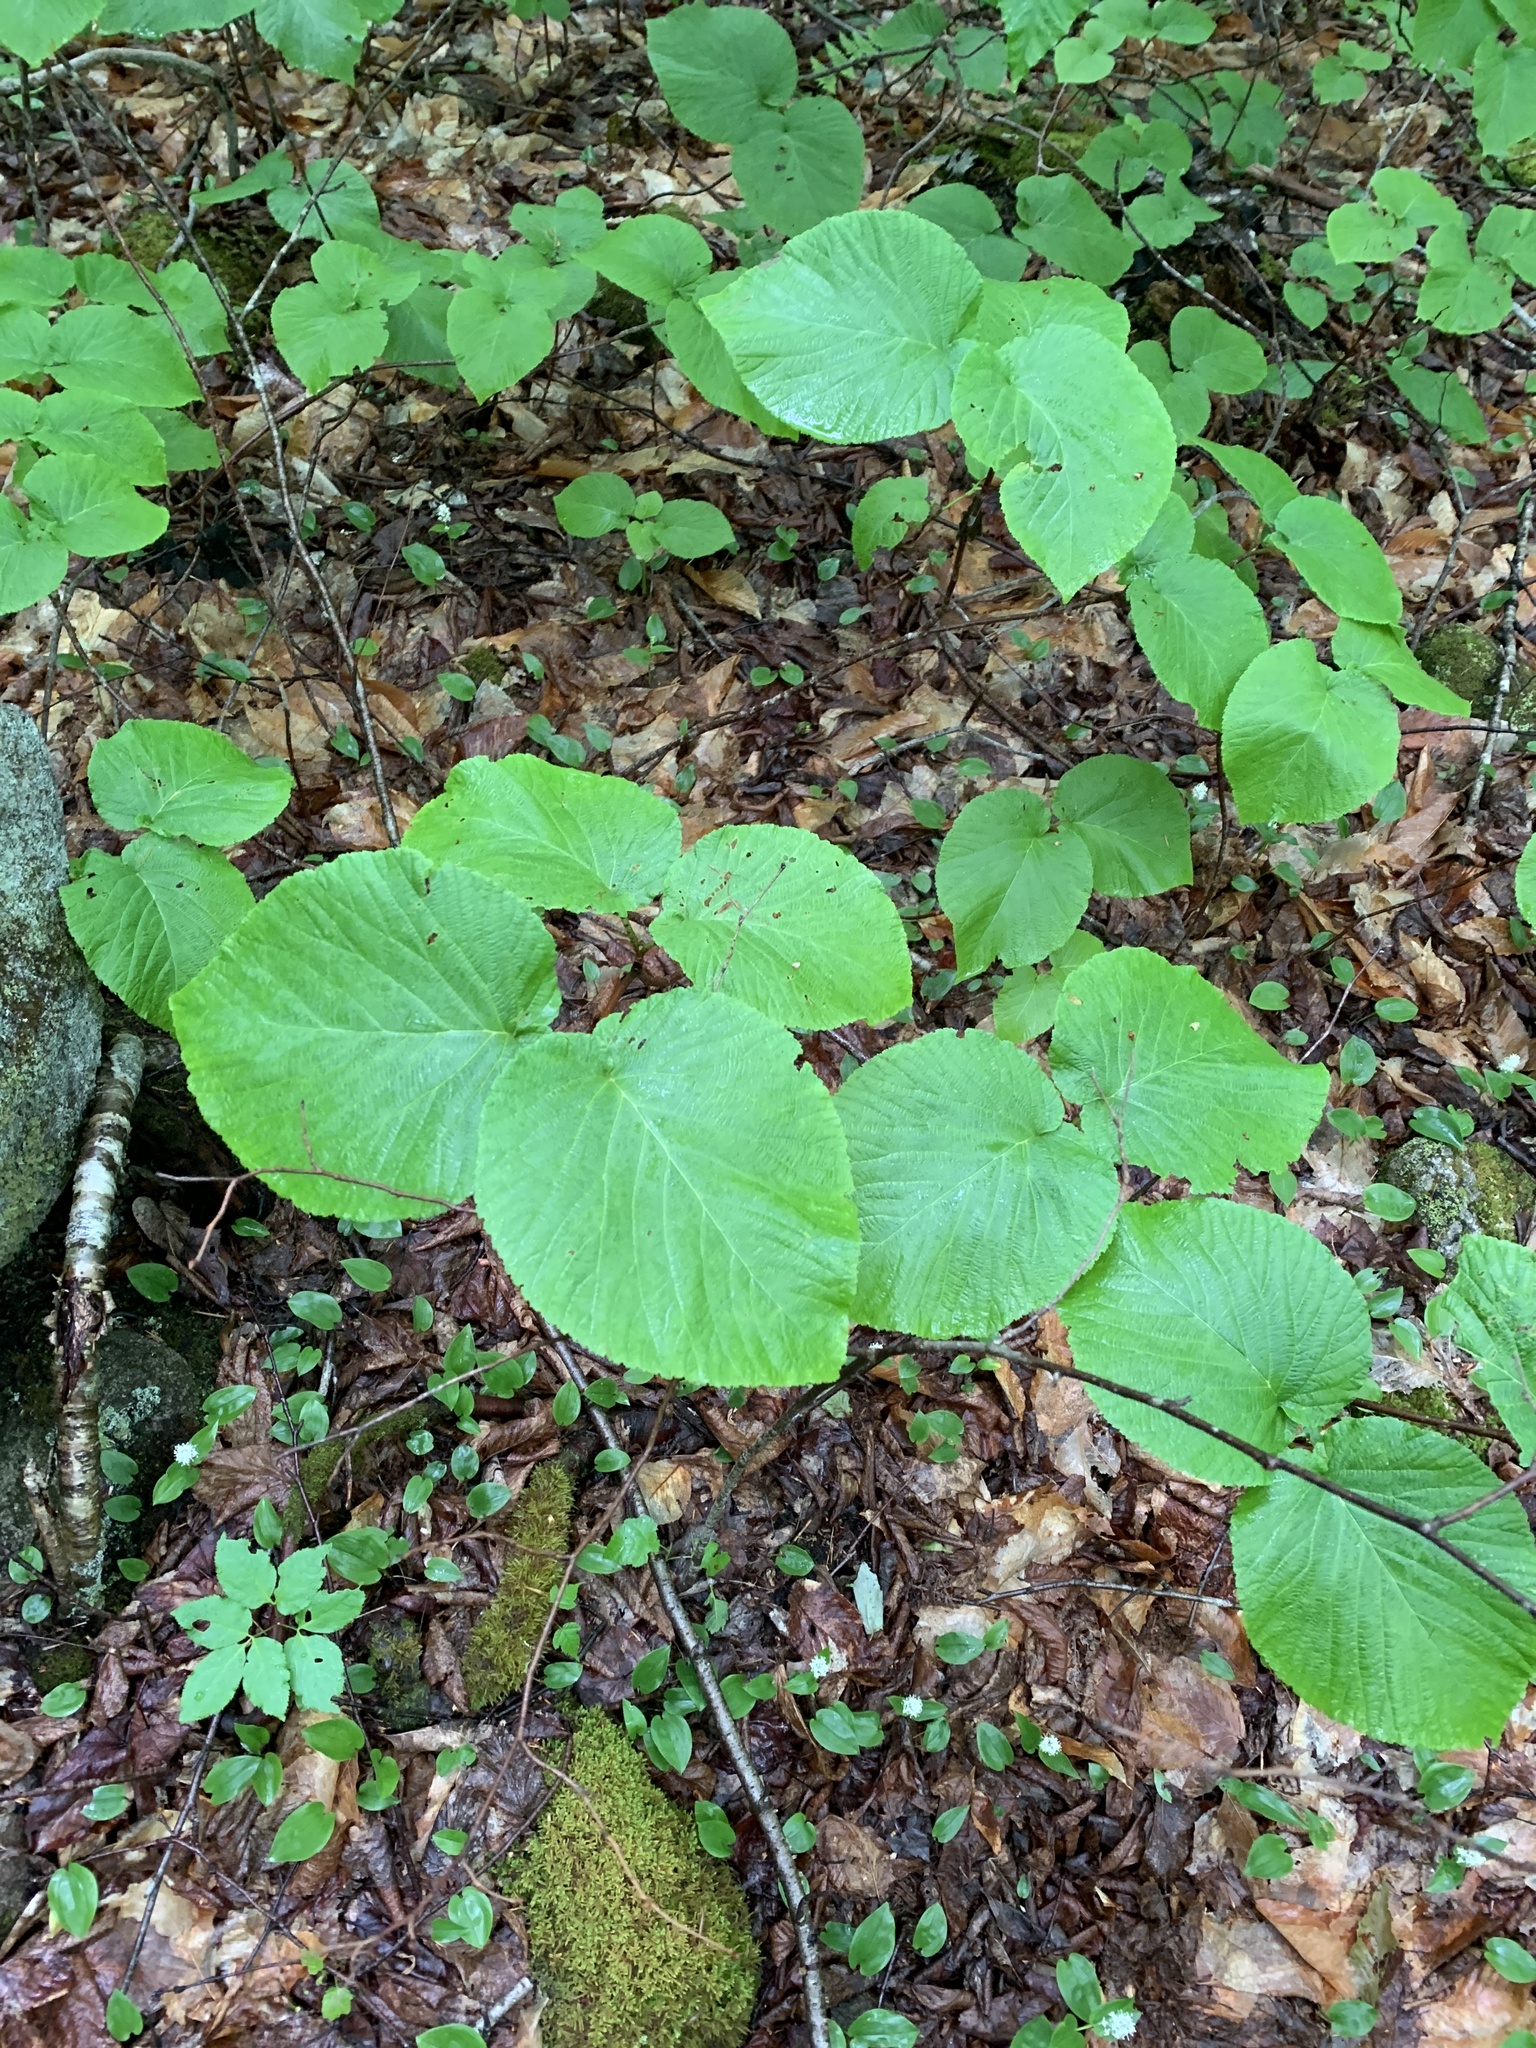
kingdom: Plantae
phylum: Tracheophyta
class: Magnoliopsida
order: Dipsacales
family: Viburnaceae
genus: Viburnum
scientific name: Viburnum lantanoides
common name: Hobblebush
